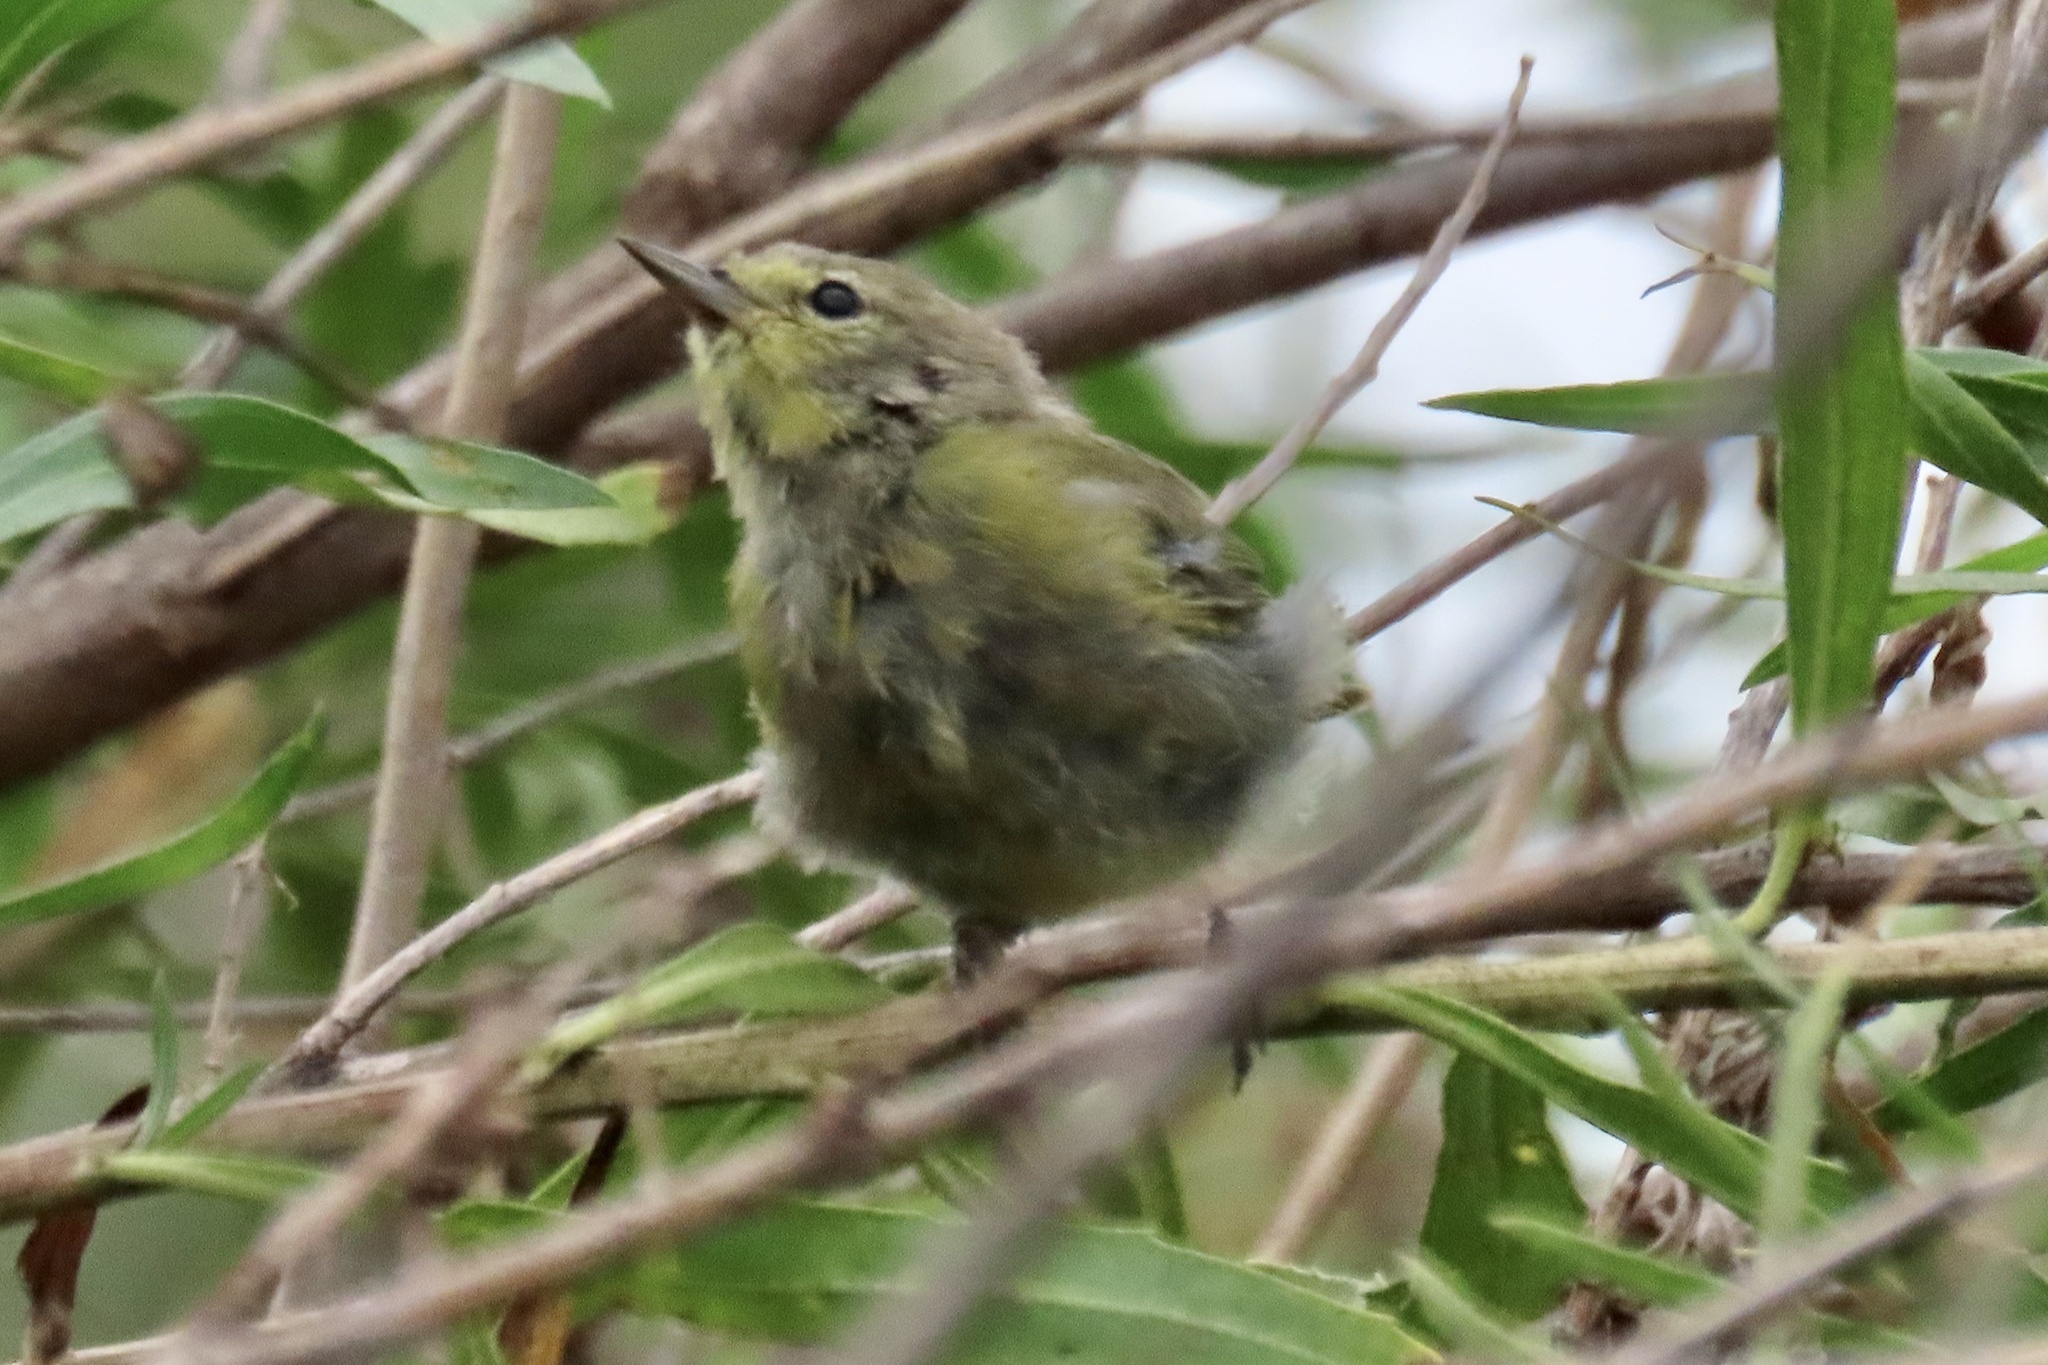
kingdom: Animalia
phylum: Chordata
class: Aves
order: Passeriformes
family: Parulidae
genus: Leiothlypis
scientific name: Leiothlypis celata
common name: Orange-crowned warbler
